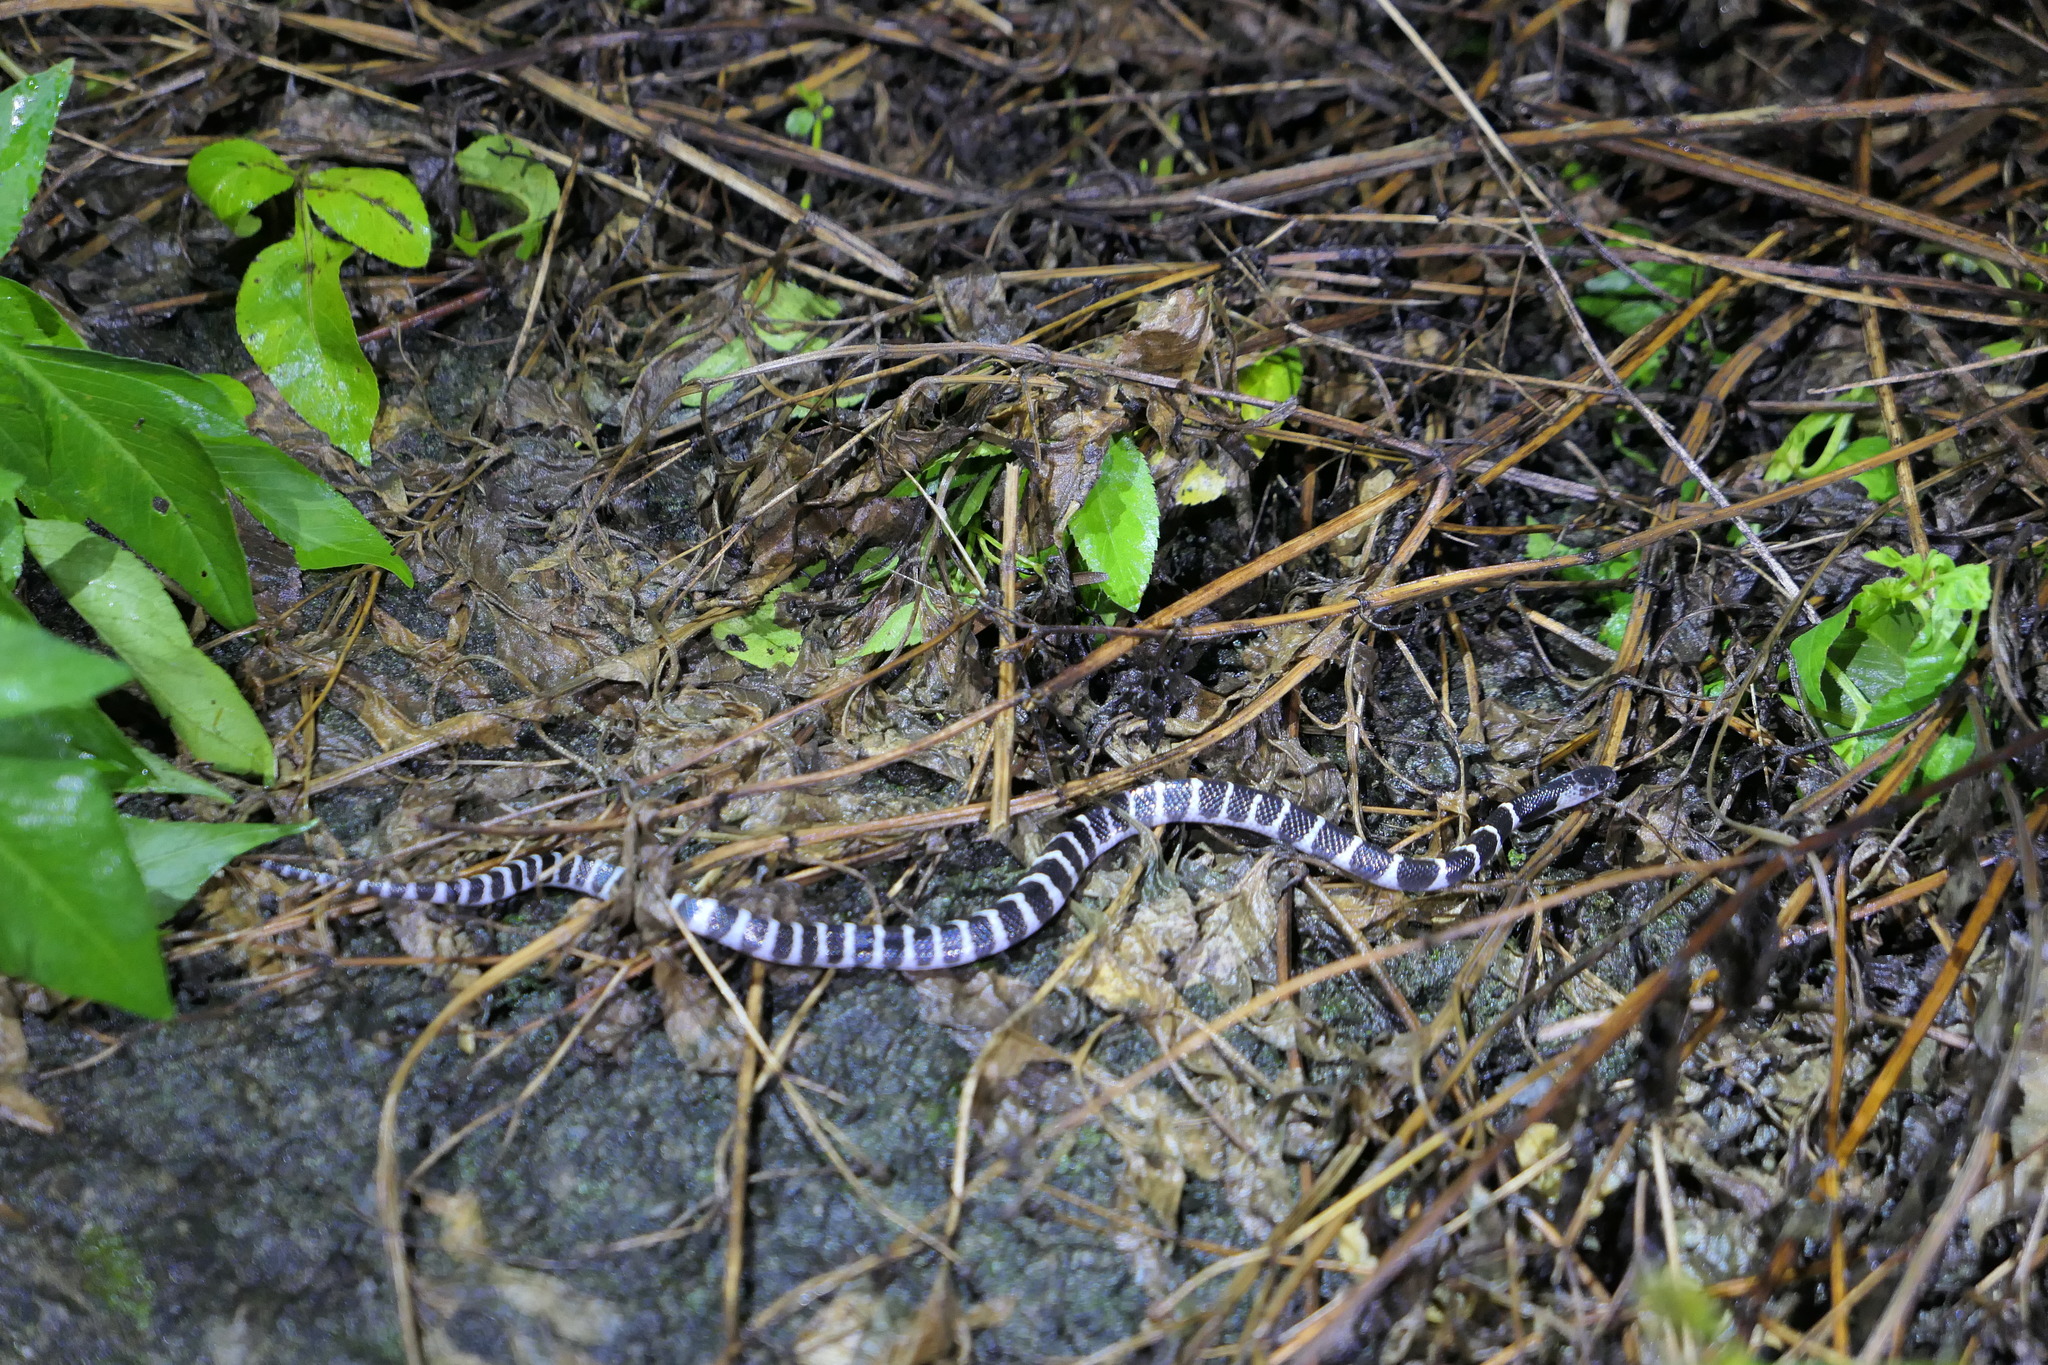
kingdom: Animalia
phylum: Chordata
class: Squamata
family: Elapidae
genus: Bungarus
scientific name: Bungarus multicinctus
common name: Many-banded krait
